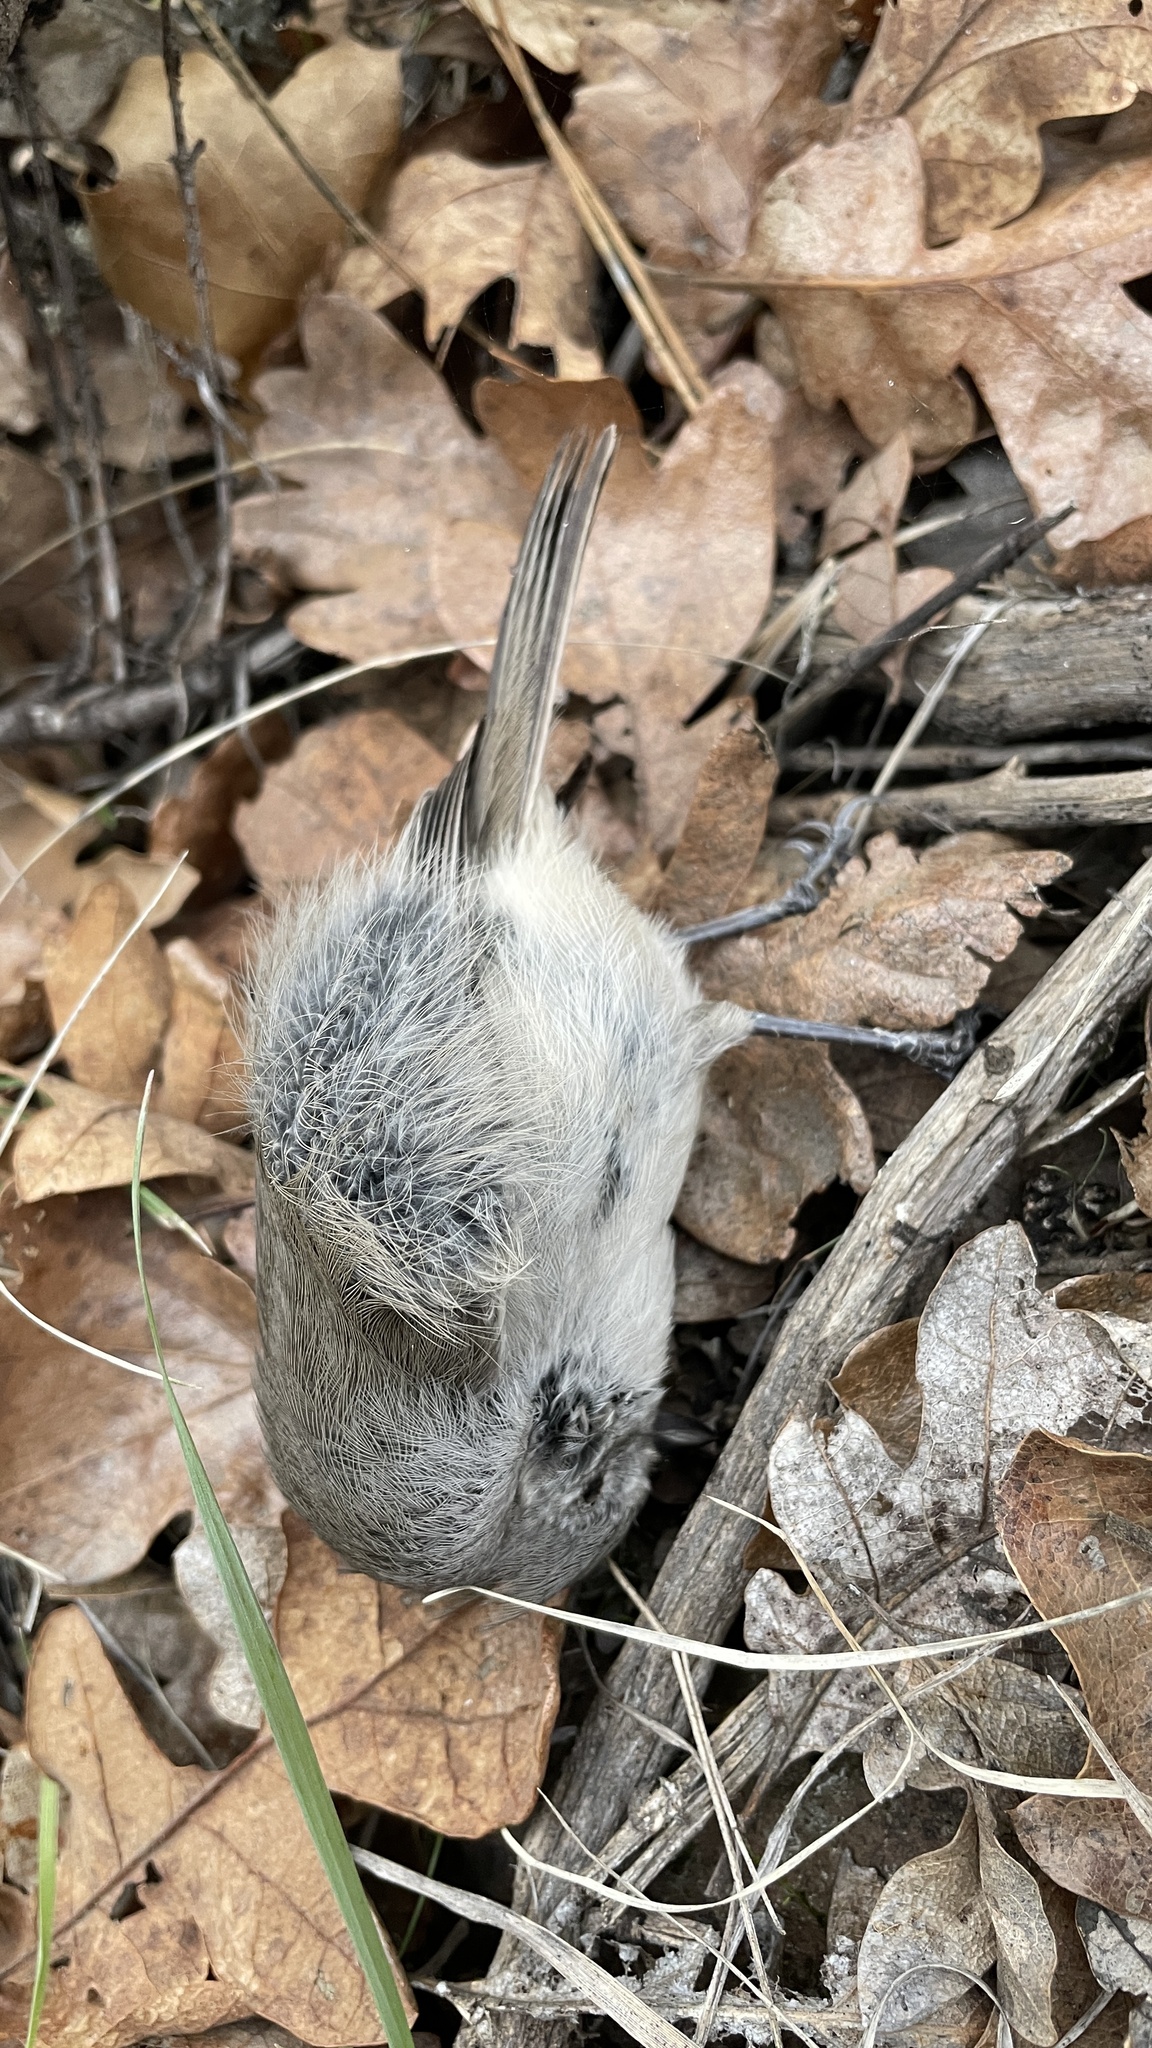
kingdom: Animalia
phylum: Chordata
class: Aves
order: Passeriformes
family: Aegithalidae
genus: Psaltriparus
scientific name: Psaltriparus minimus
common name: American bushtit
